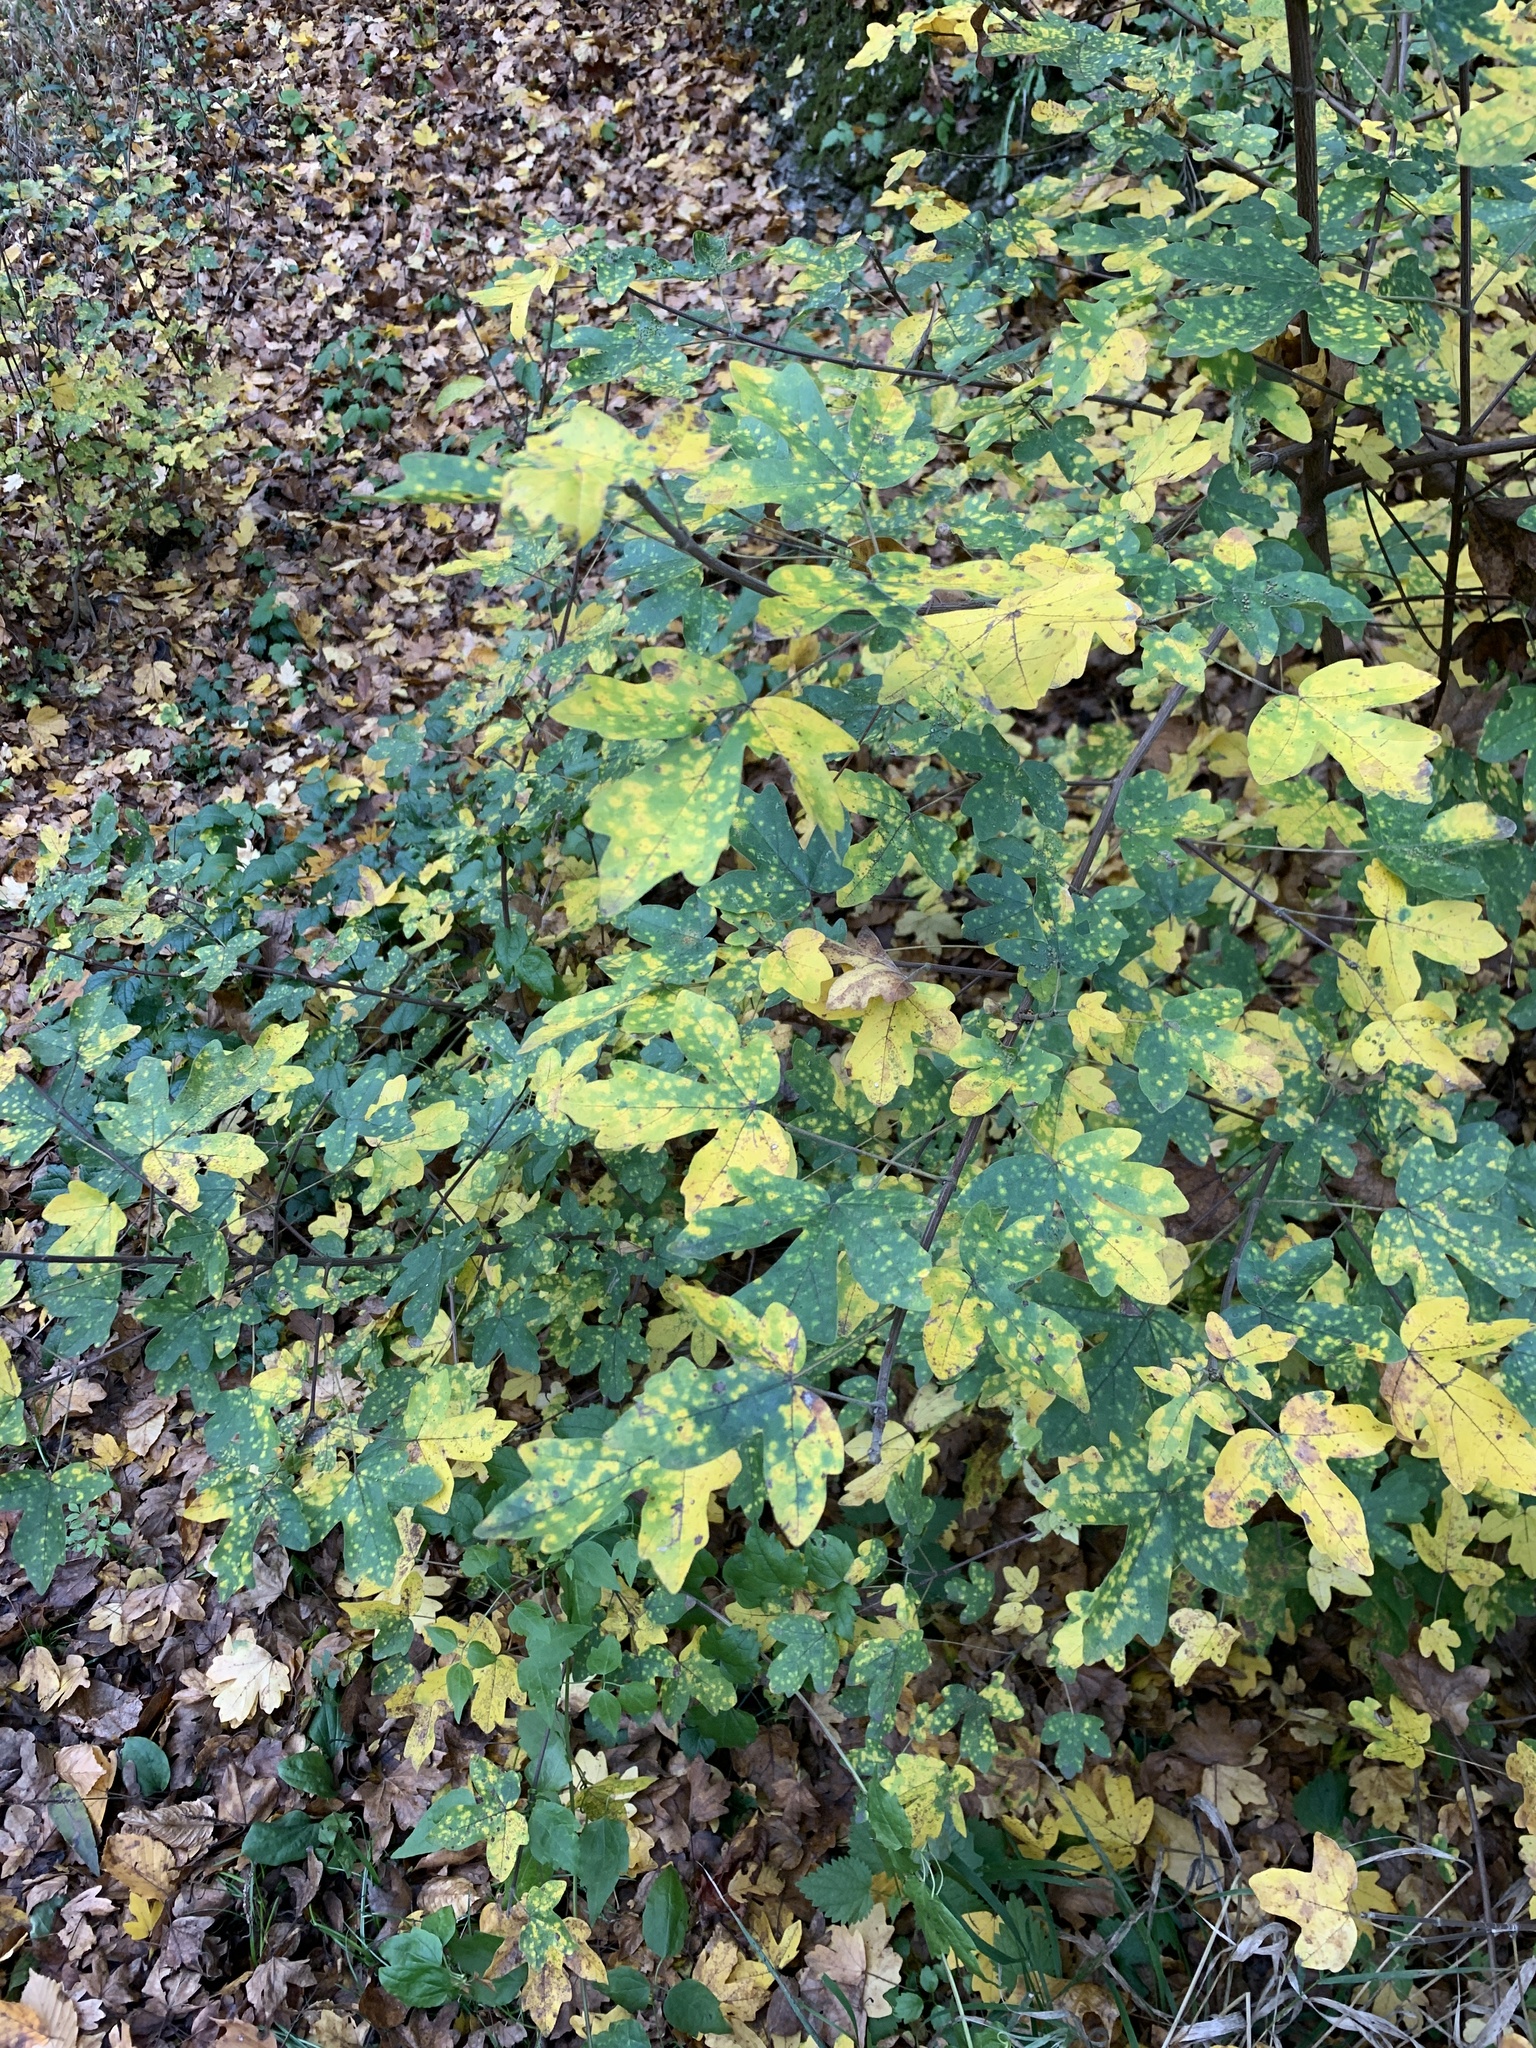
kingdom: Plantae
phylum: Tracheophyta
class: Magnoliopsida
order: Sapindales
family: Sapindaceae
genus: Acer
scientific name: Acer campestre
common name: Field maple
